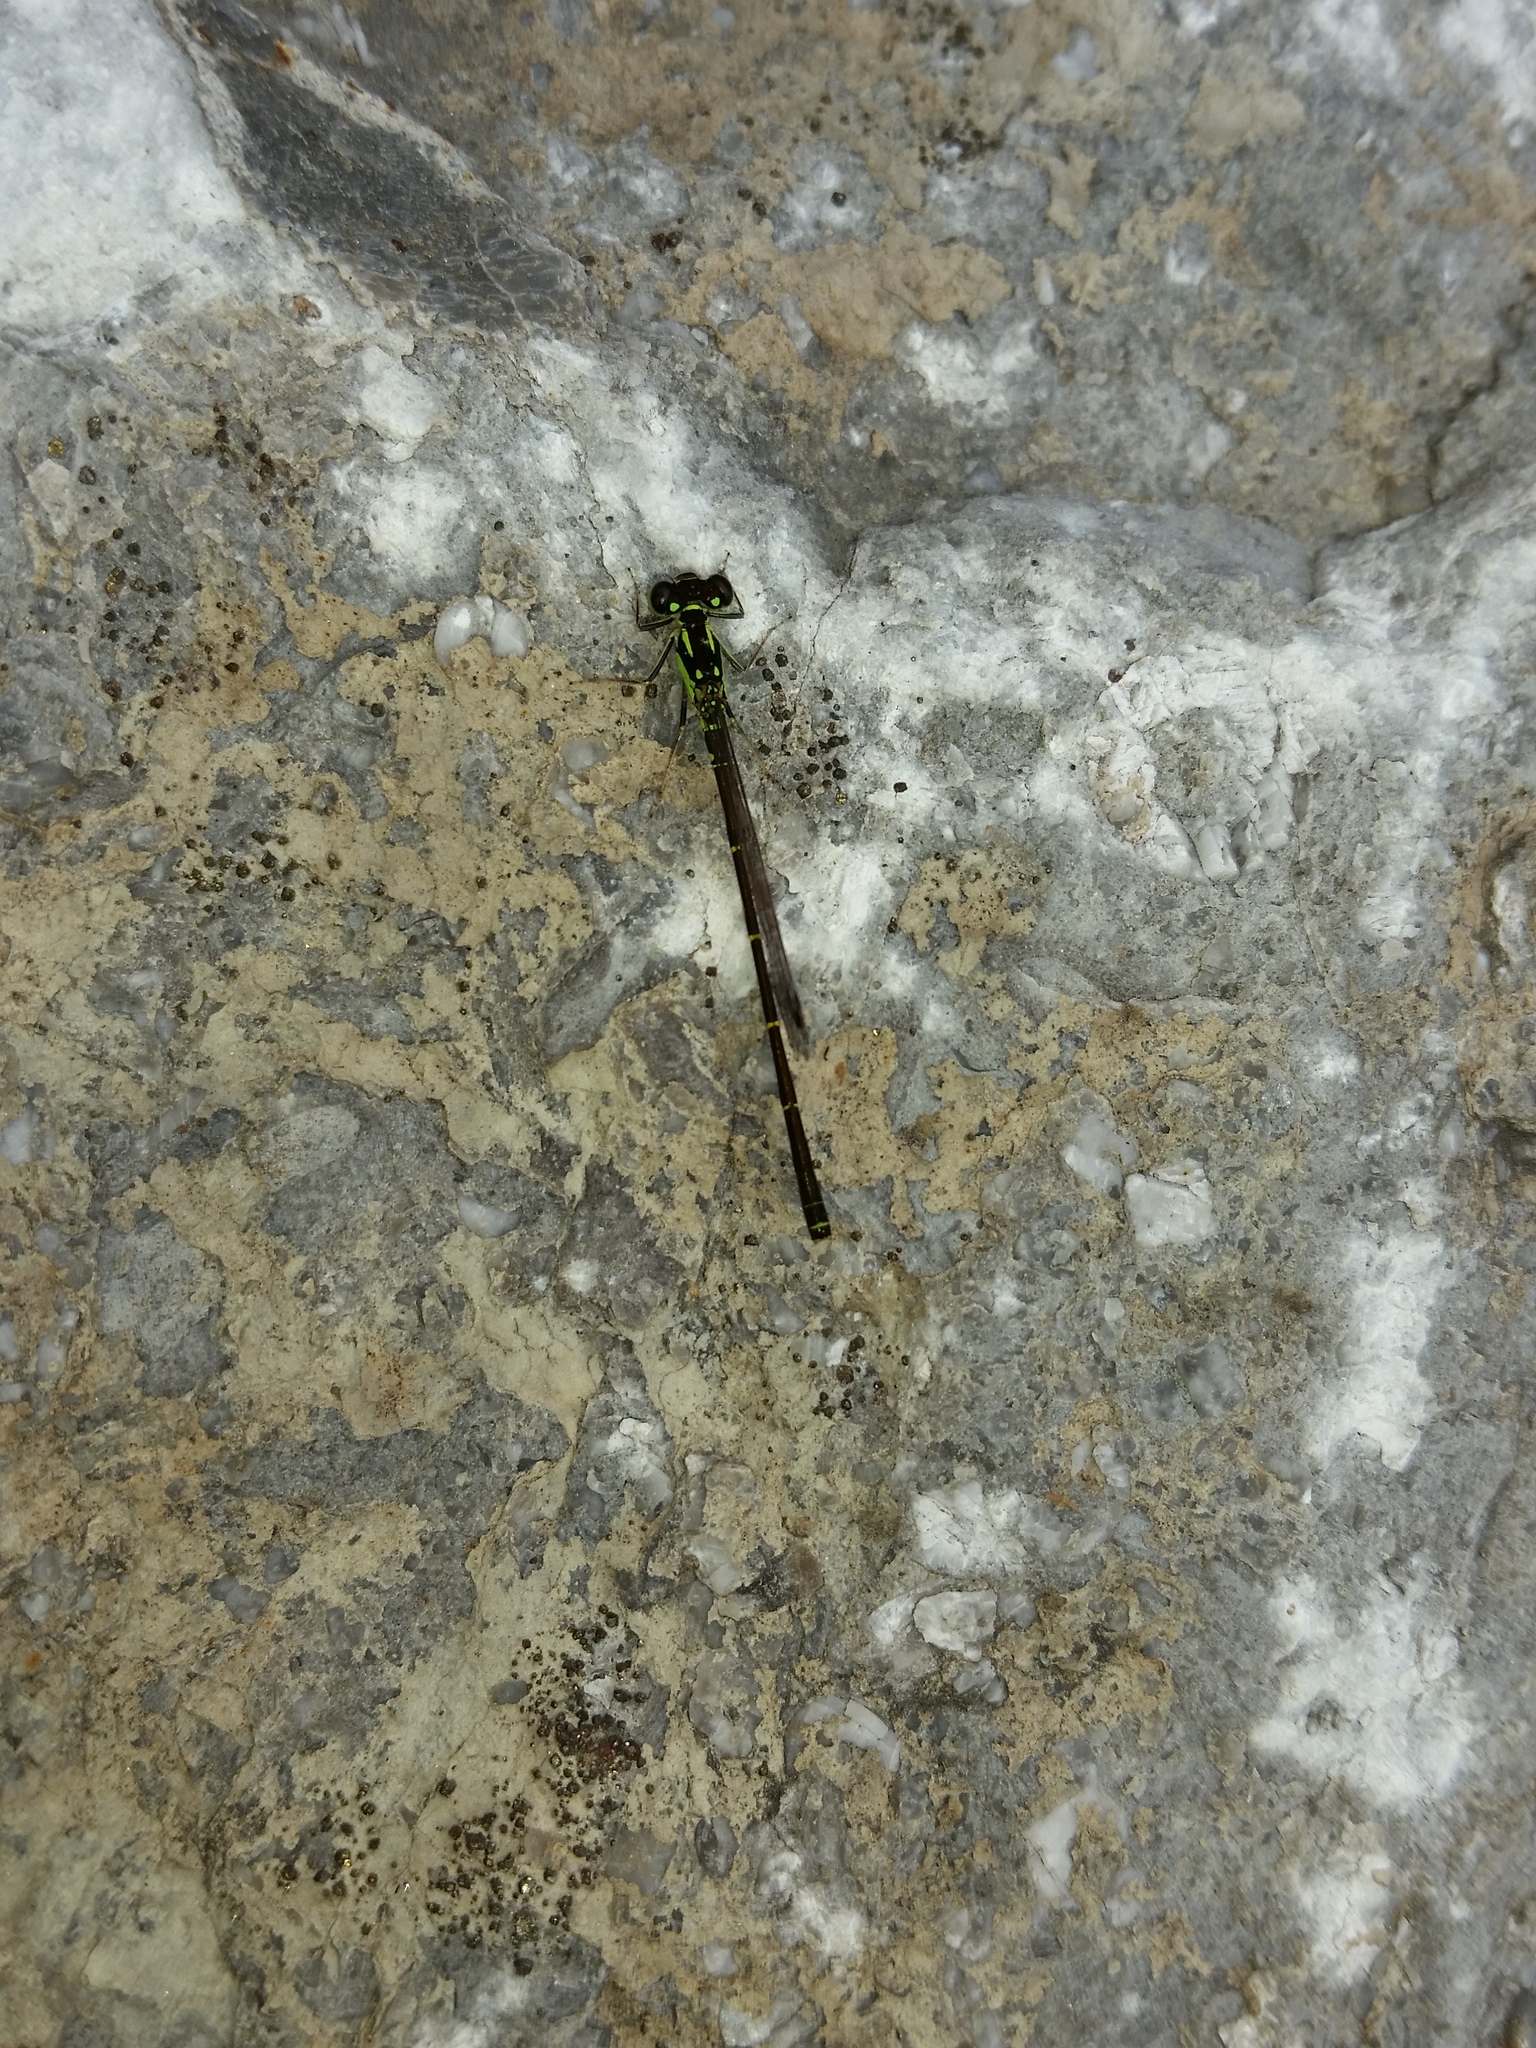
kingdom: Animalia
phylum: Arthropoda
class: Insecta
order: Odonata
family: Coenagrionidae
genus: Ischnura
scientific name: Ischnura posita
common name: Fragile forktail
